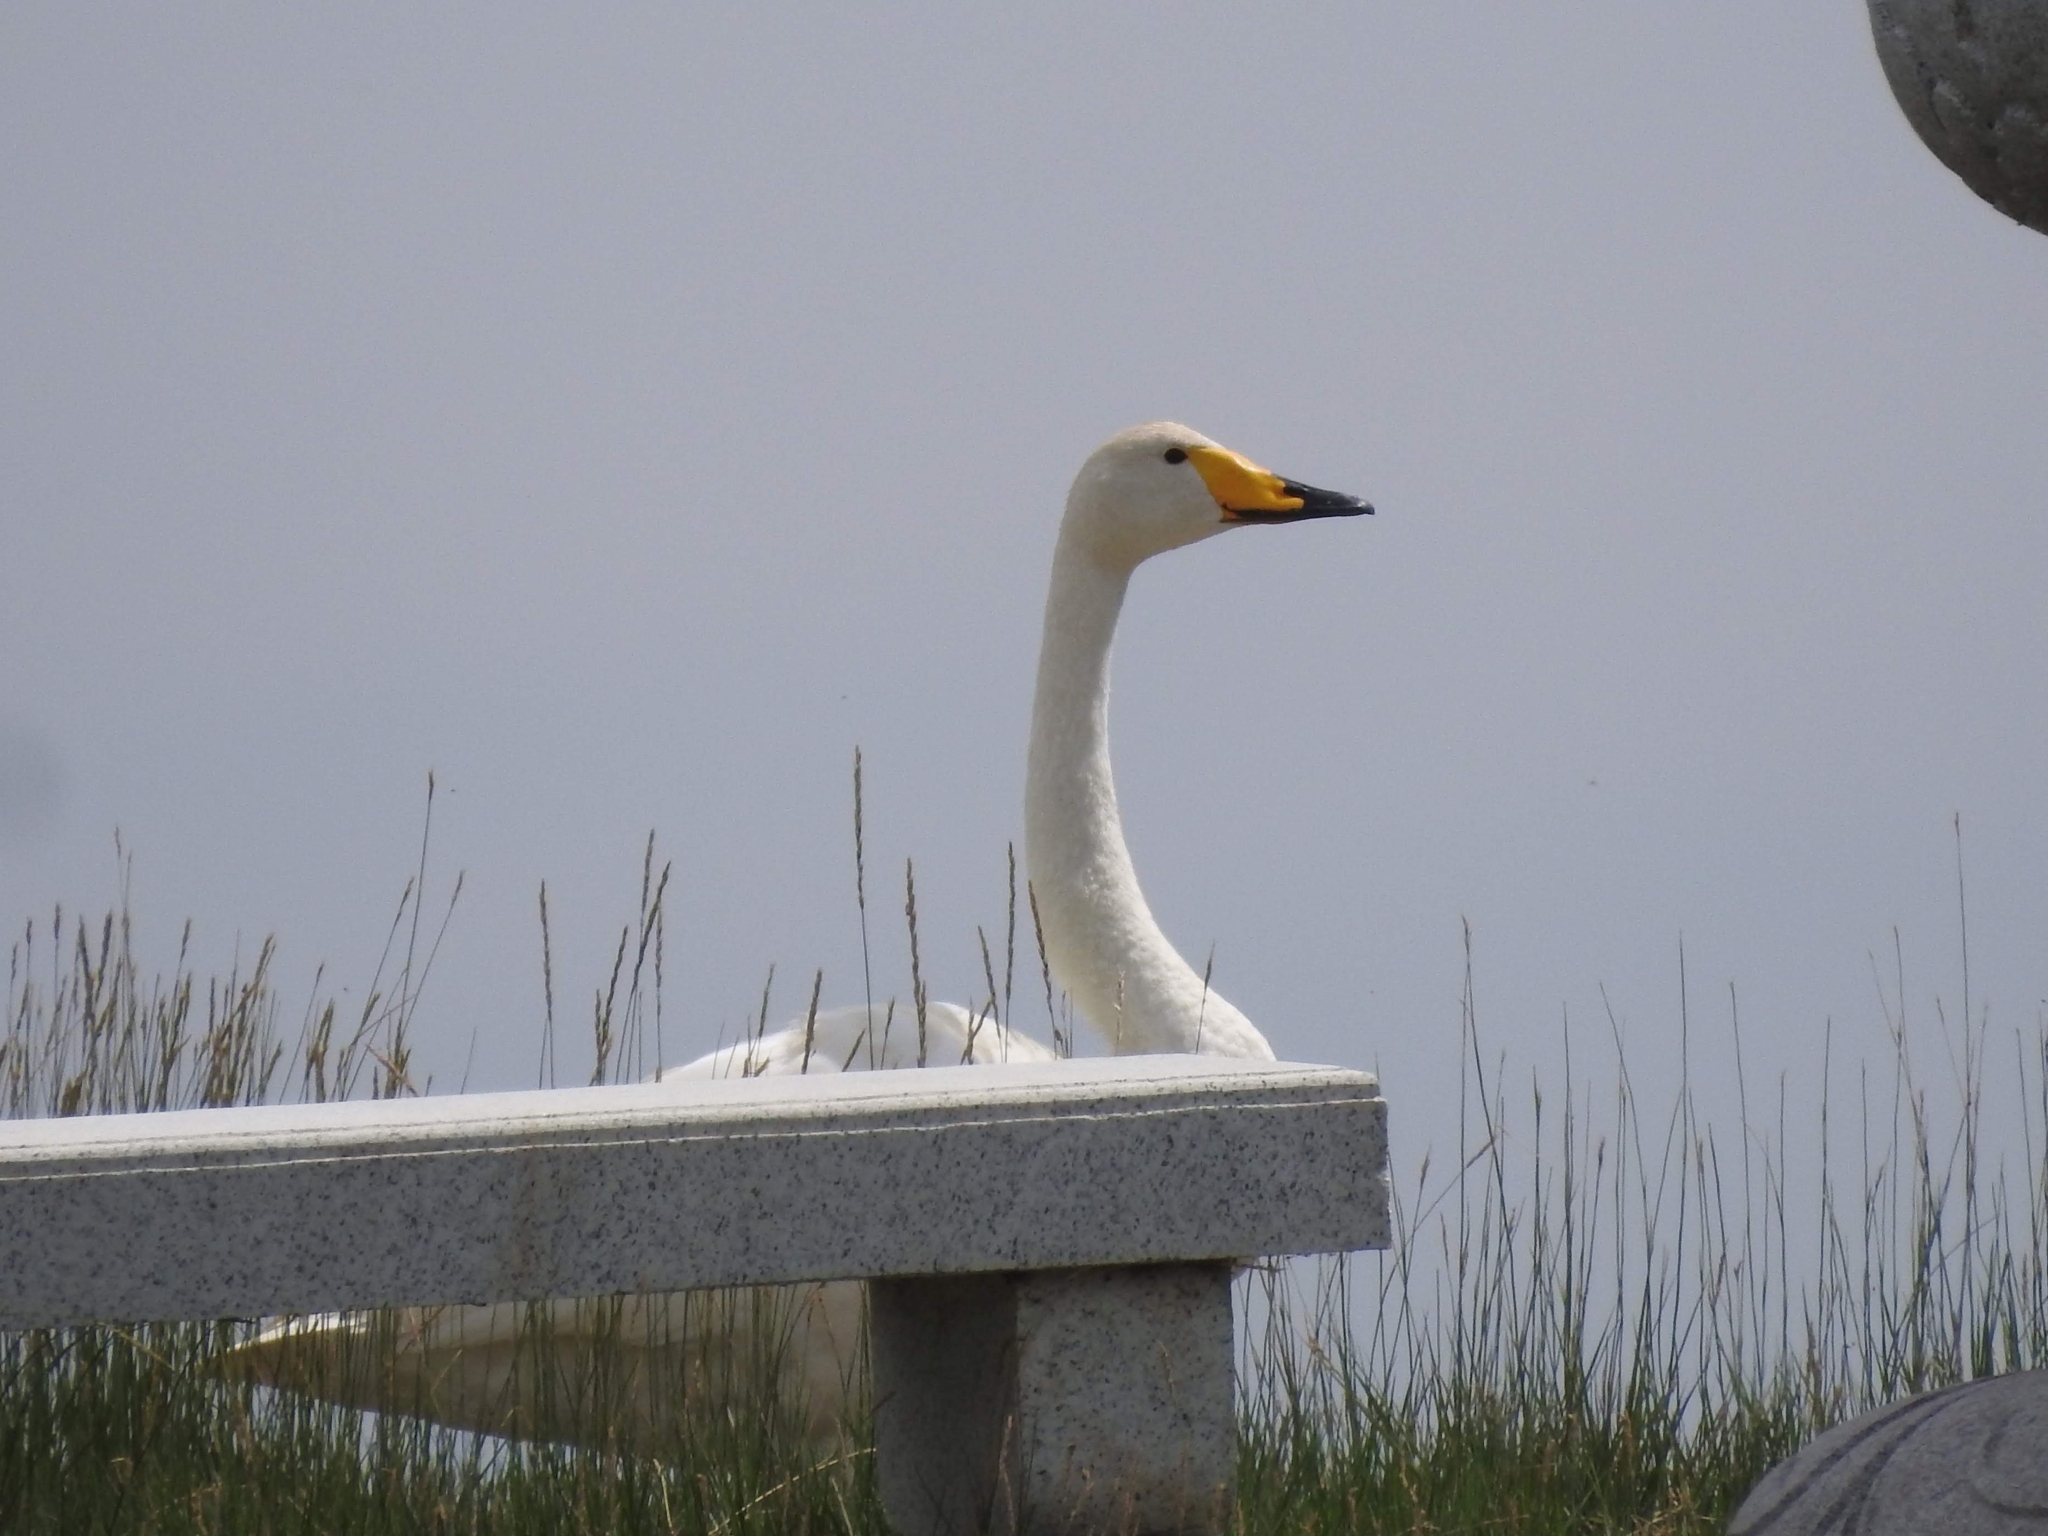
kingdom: Animalia
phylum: Chordata
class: Aves
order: Anseriformes
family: Anatidae
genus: Cygnus
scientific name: Cygnus cygnus
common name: Whooper swan
